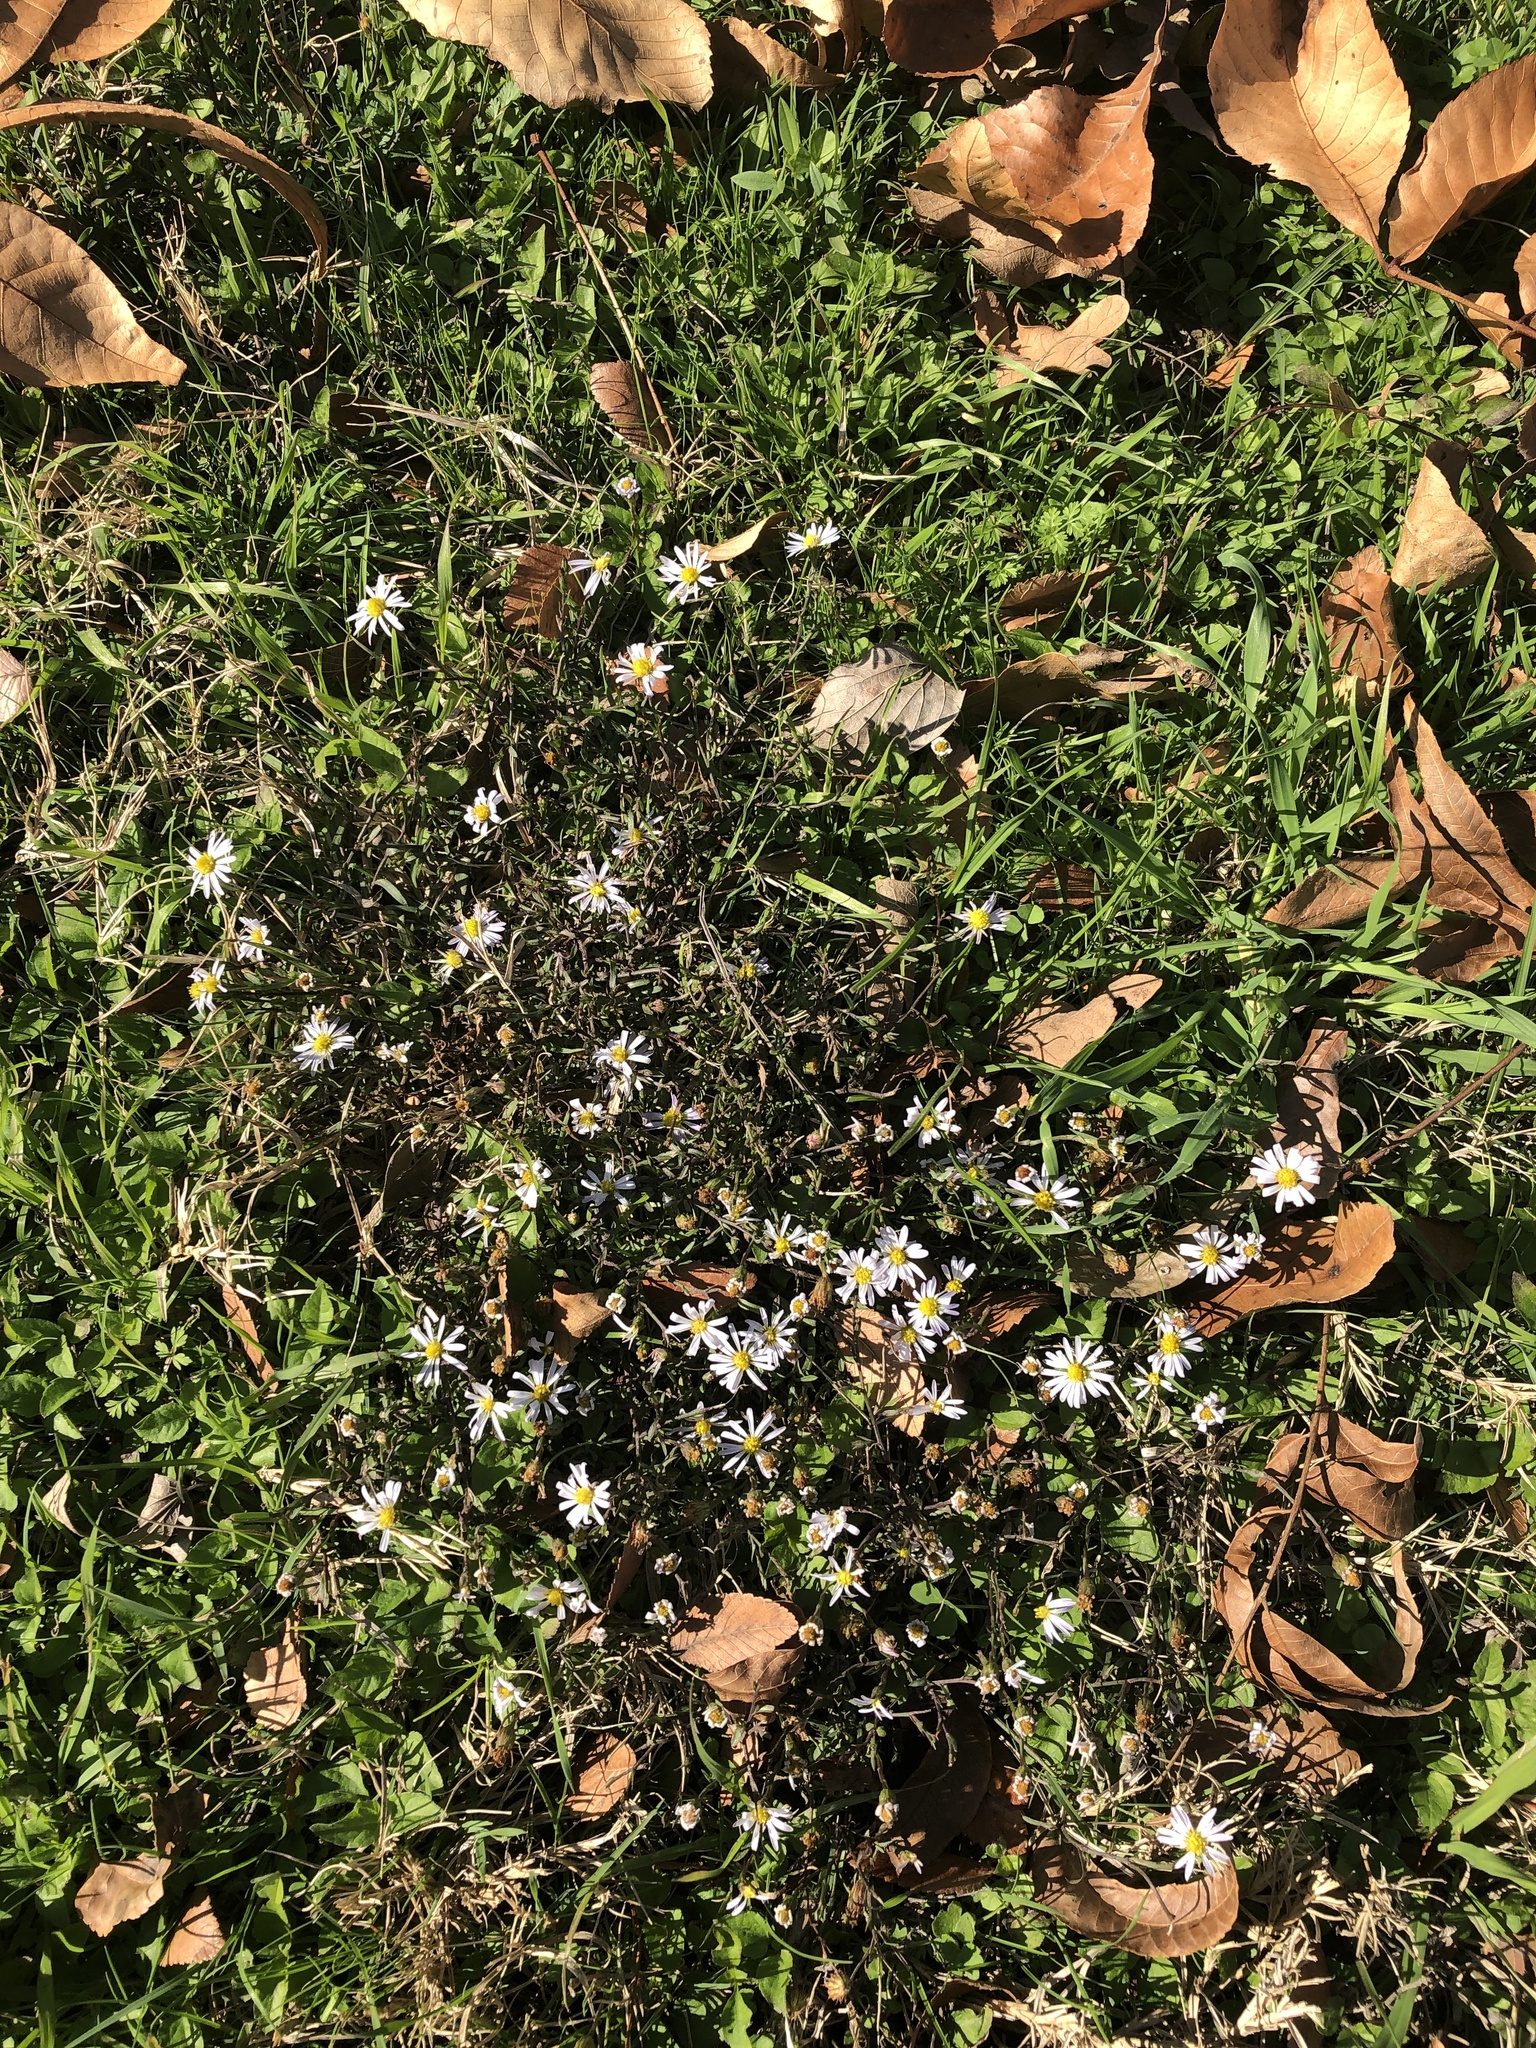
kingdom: Plantae
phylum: Tracheophyta
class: Magnoliopsida
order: Asterales
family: Asteraceae
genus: Symphyotrichum
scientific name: Symphyotrichum divaricatum
